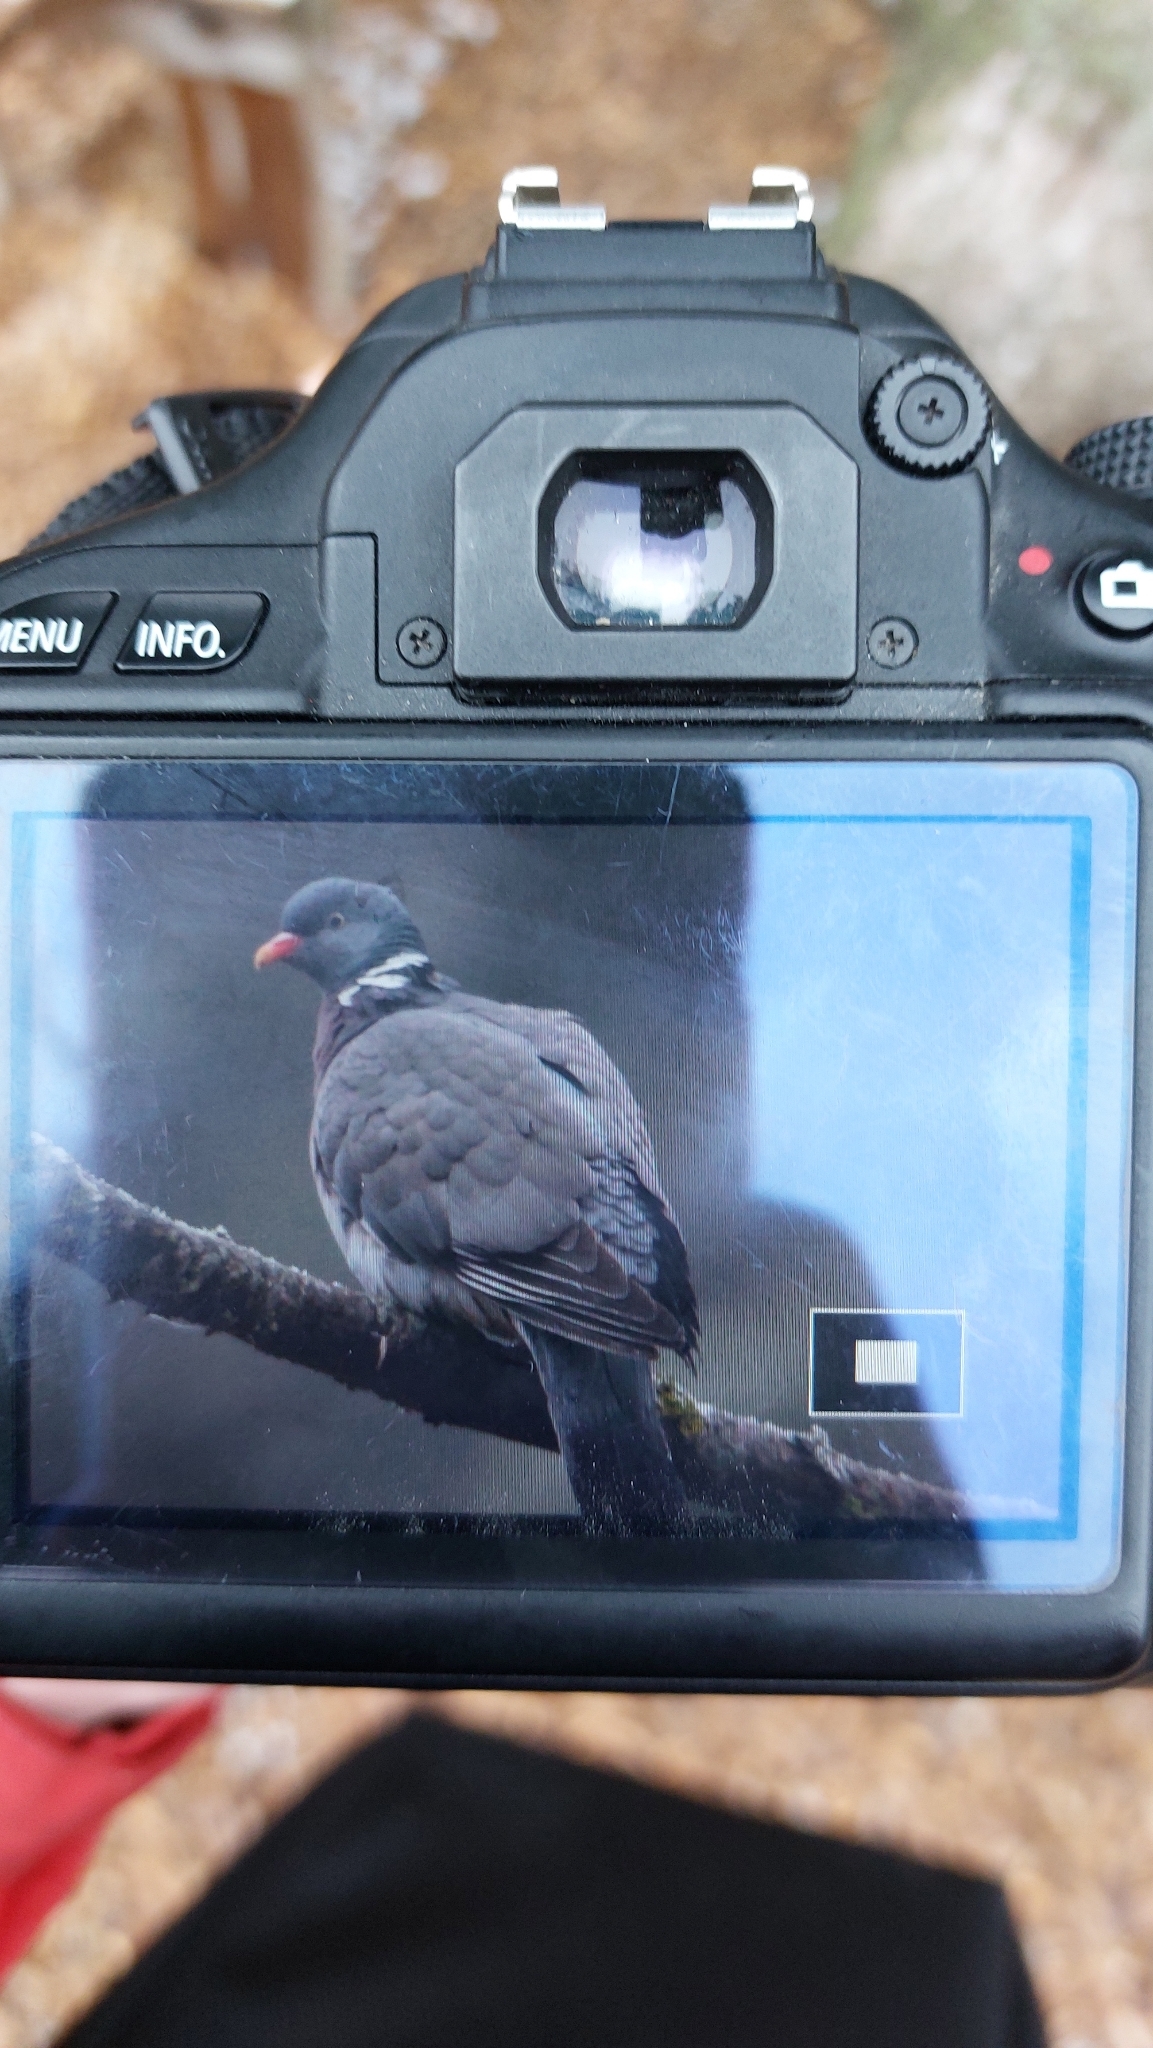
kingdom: Animalia
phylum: Chordata
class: Aves
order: Columbiformes
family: Columbidae
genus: Columba
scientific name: Columba palumbus
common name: Common wood pigeon
